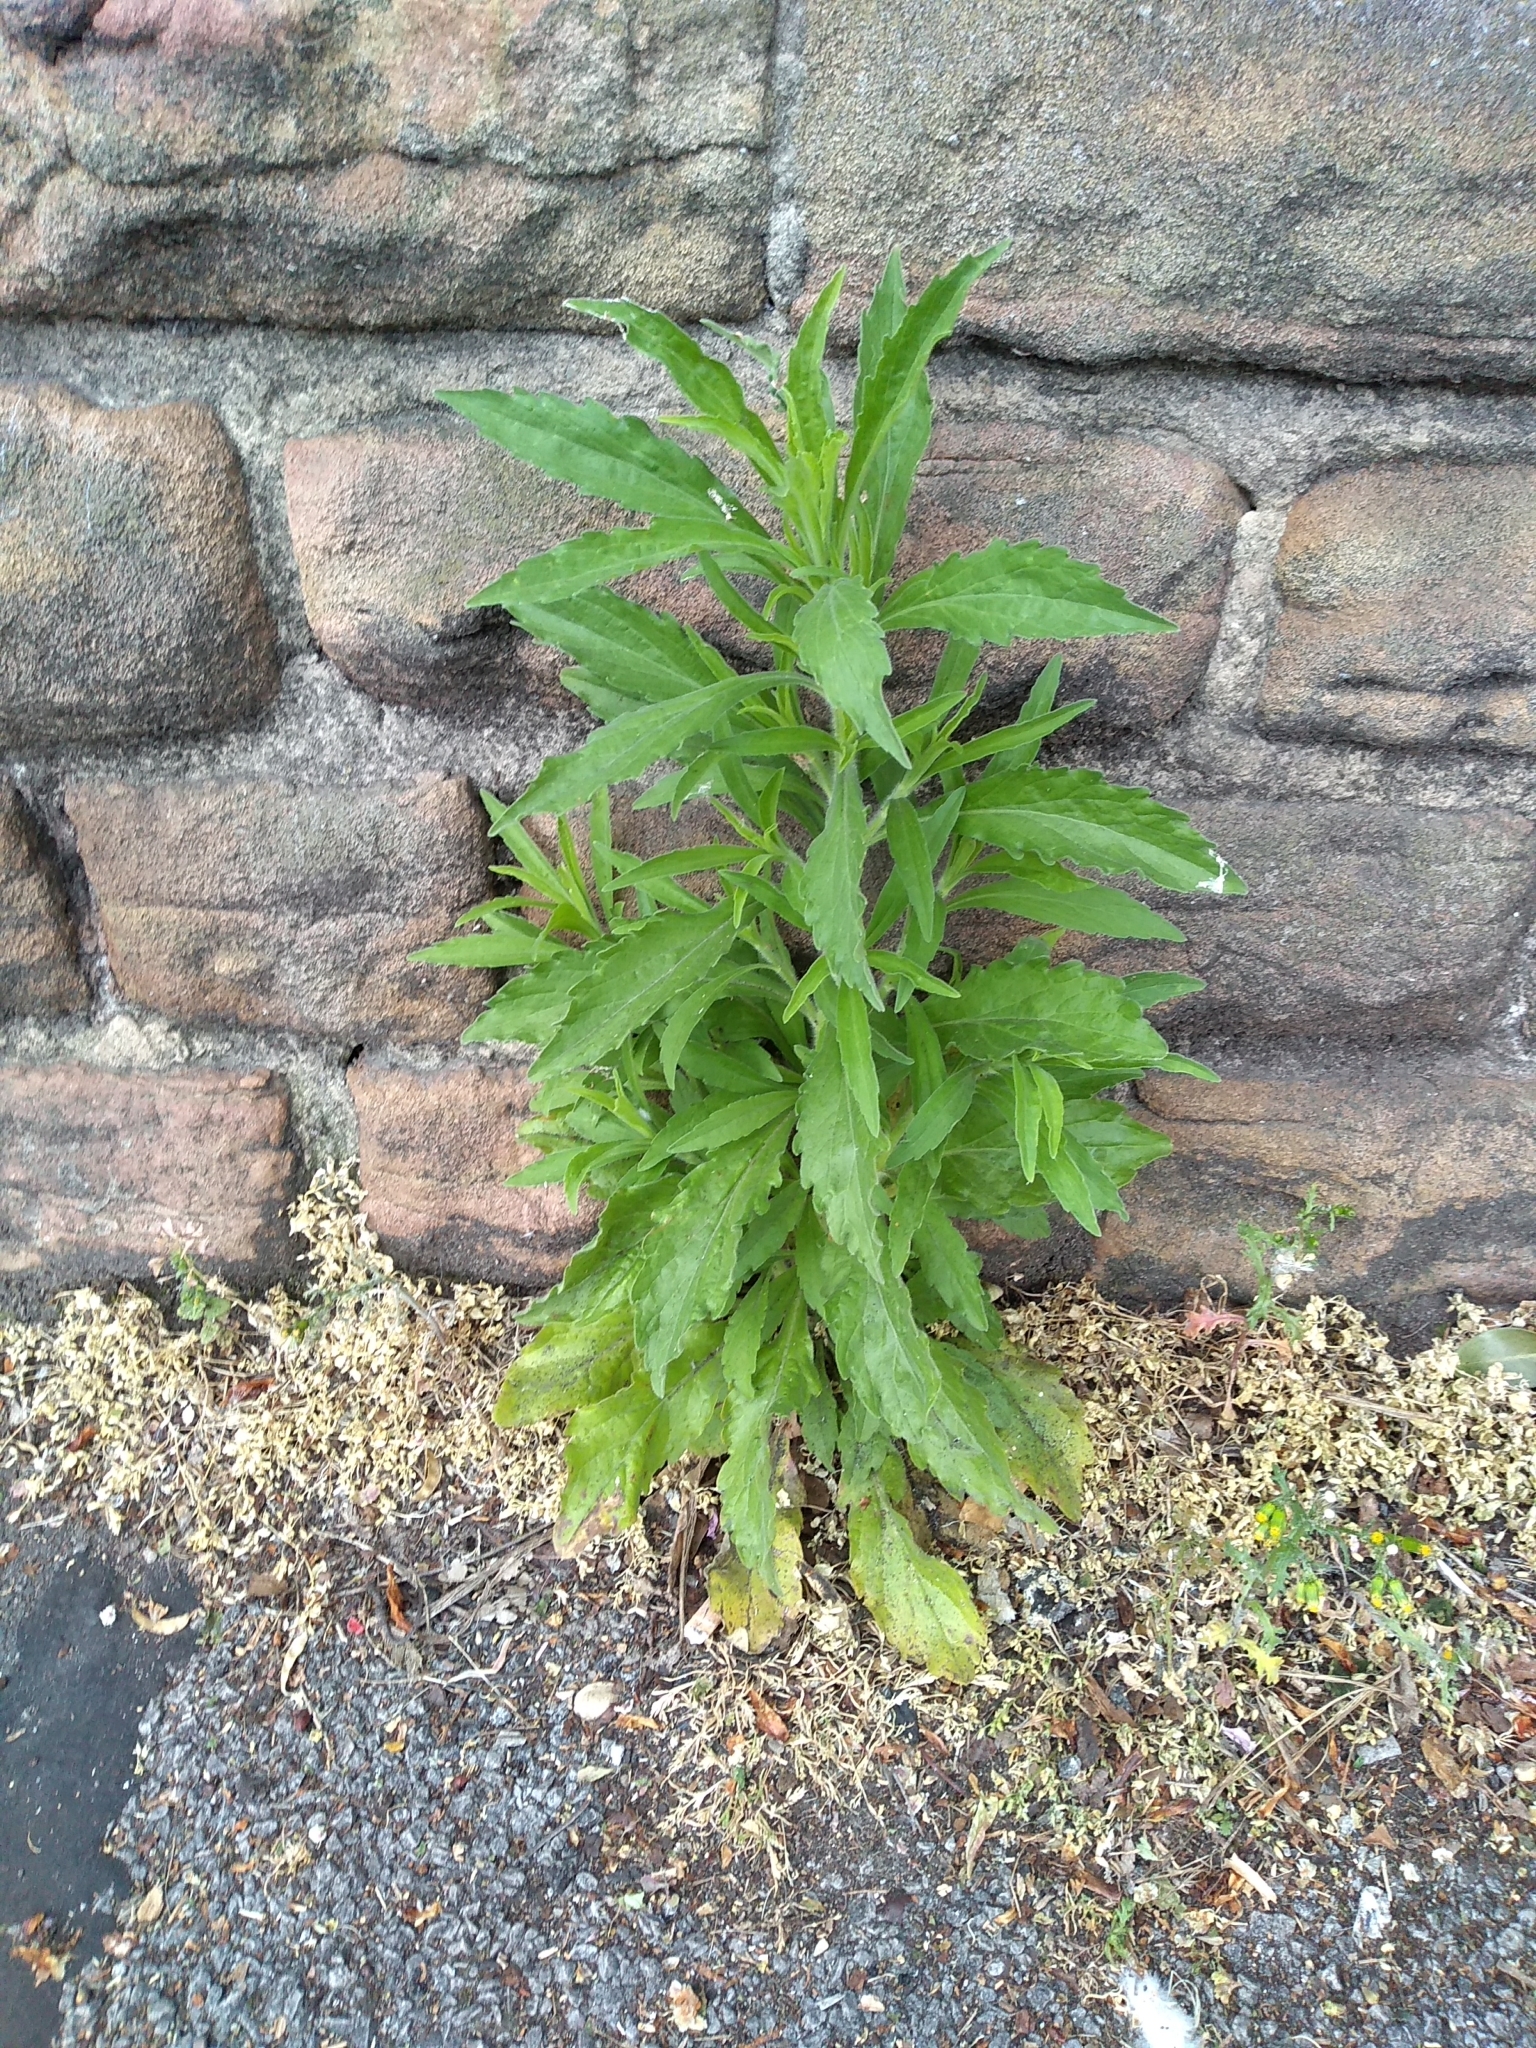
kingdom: Plantae
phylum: Tracheophyta
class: Magnoliopsida
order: Asterales
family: Asteraceae
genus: Erigeron
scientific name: Erigeron canadensis
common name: Canadian fleabane
